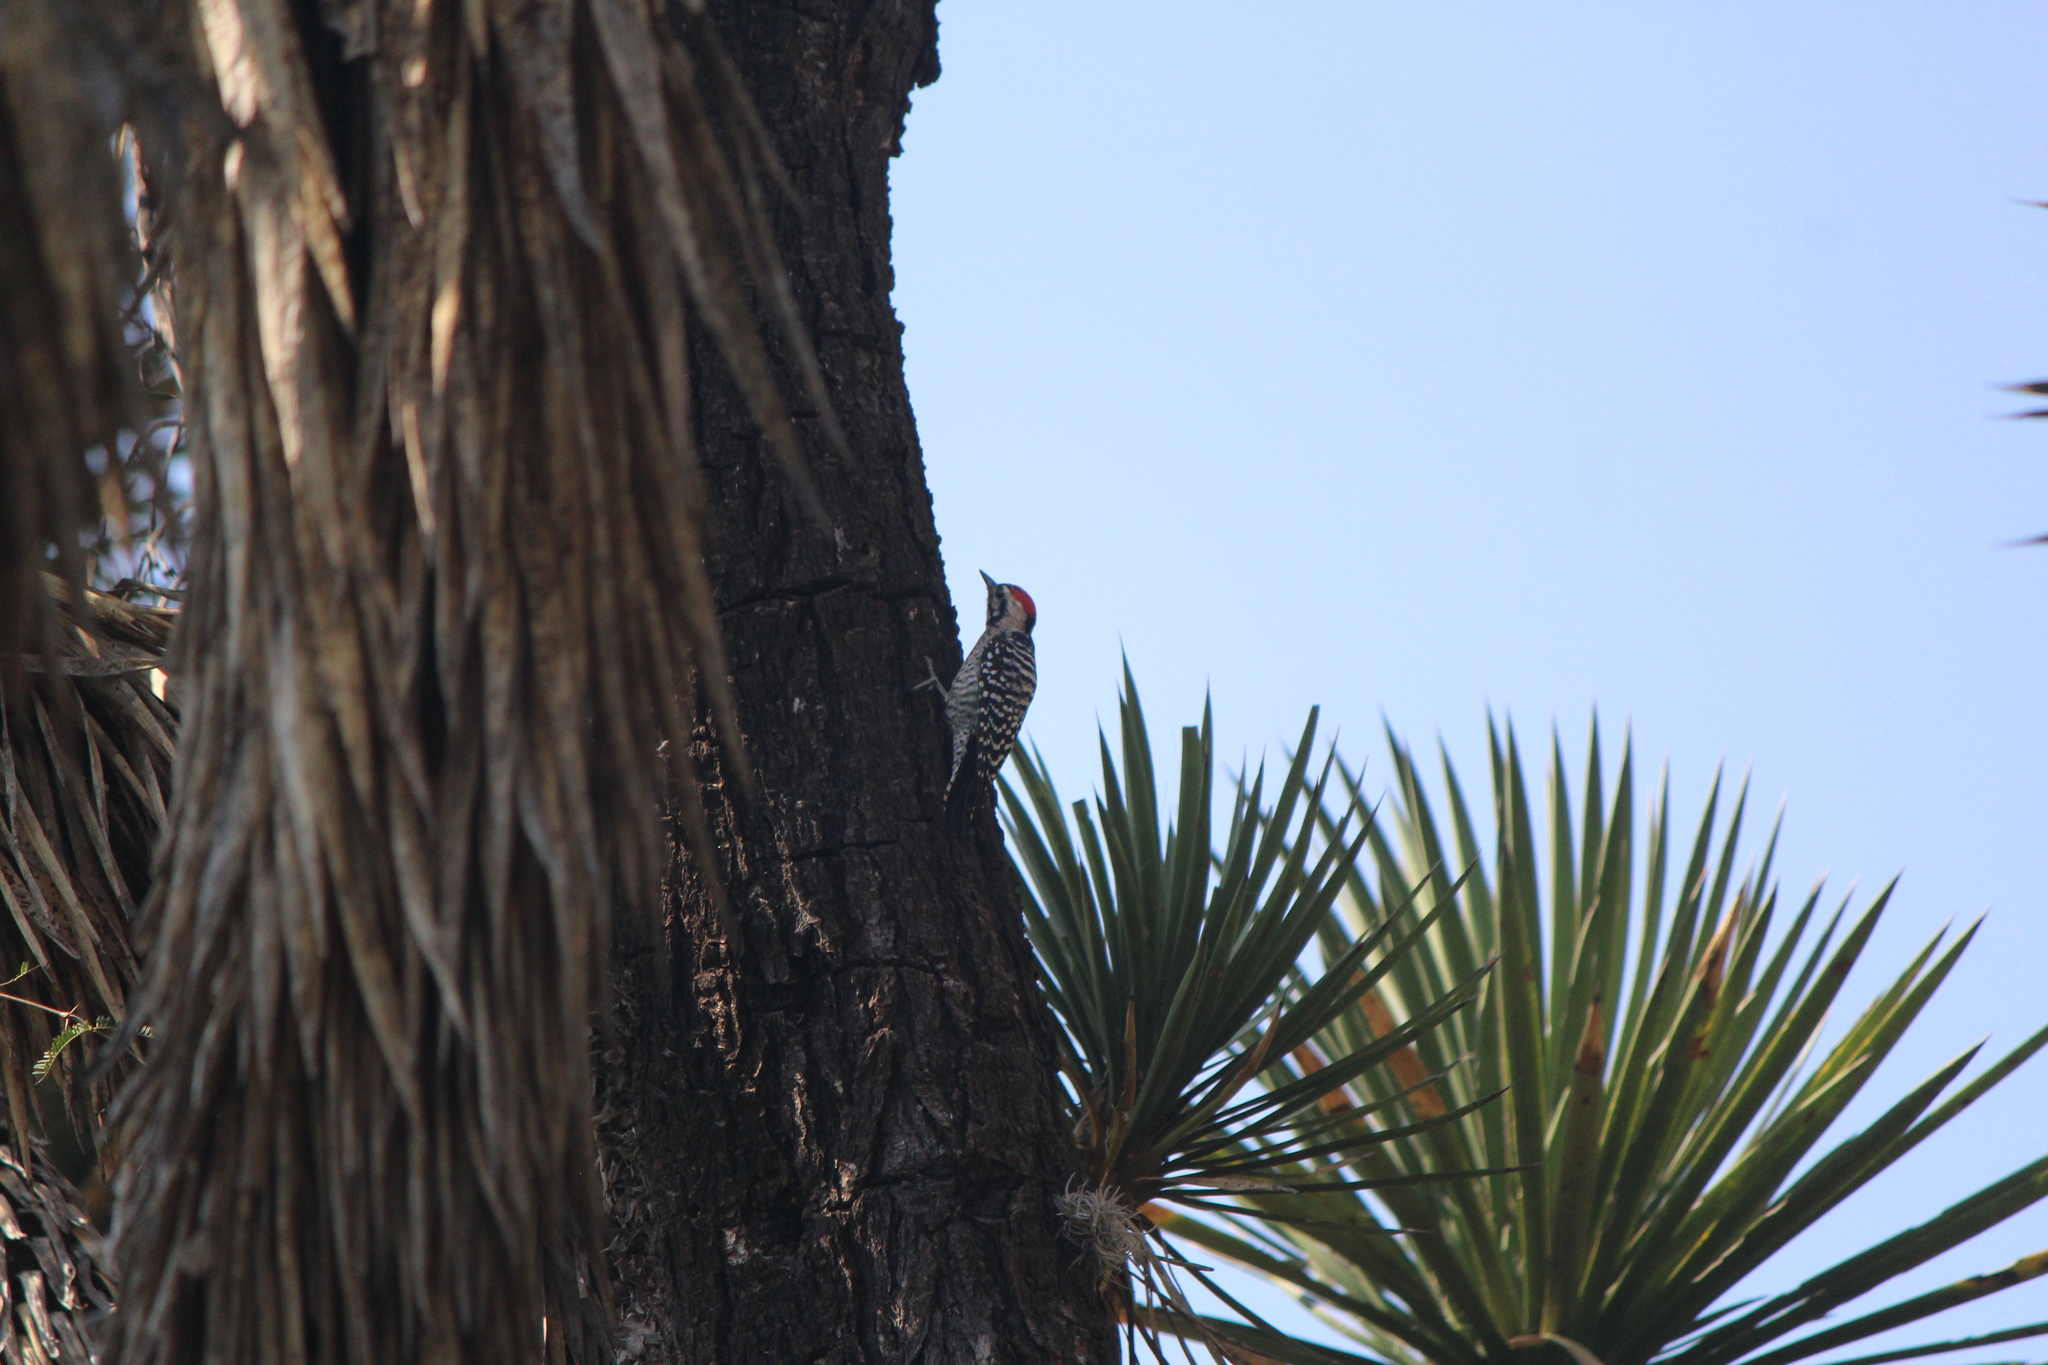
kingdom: Animalia
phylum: Chordata
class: Aves
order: Piciformes
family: Picidae
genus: Dryobates
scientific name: Dryobates scalaris
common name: Ladder-backed woodpecker
